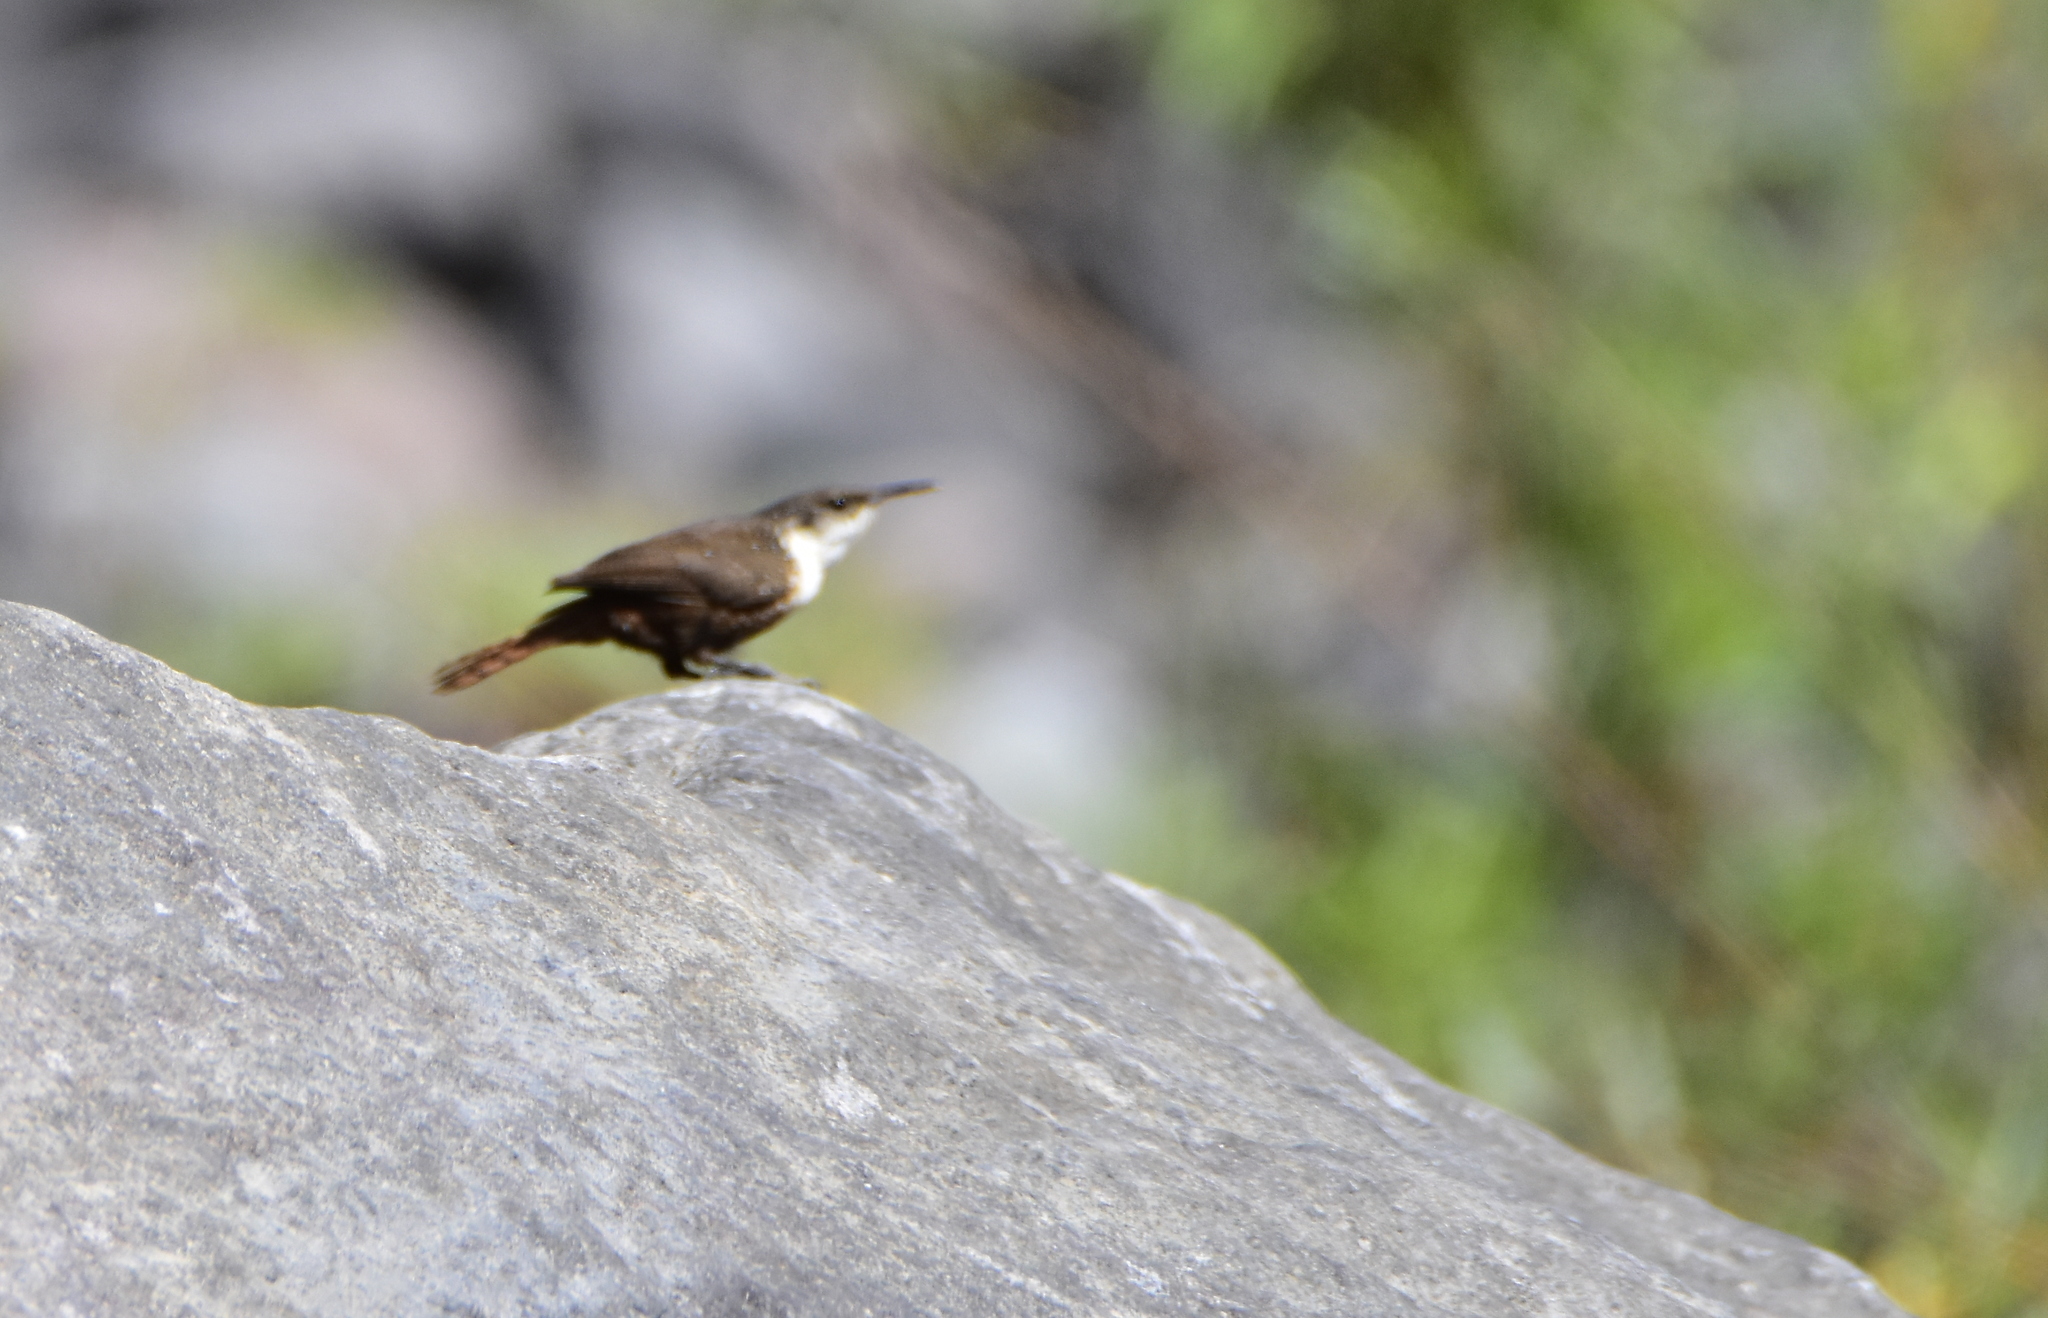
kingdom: Animalia
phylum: Chordata
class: Aves
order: Passeriformes
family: Troglodytidae
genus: Catherpes
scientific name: Catherpes mexicanus
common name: Canyon wren
